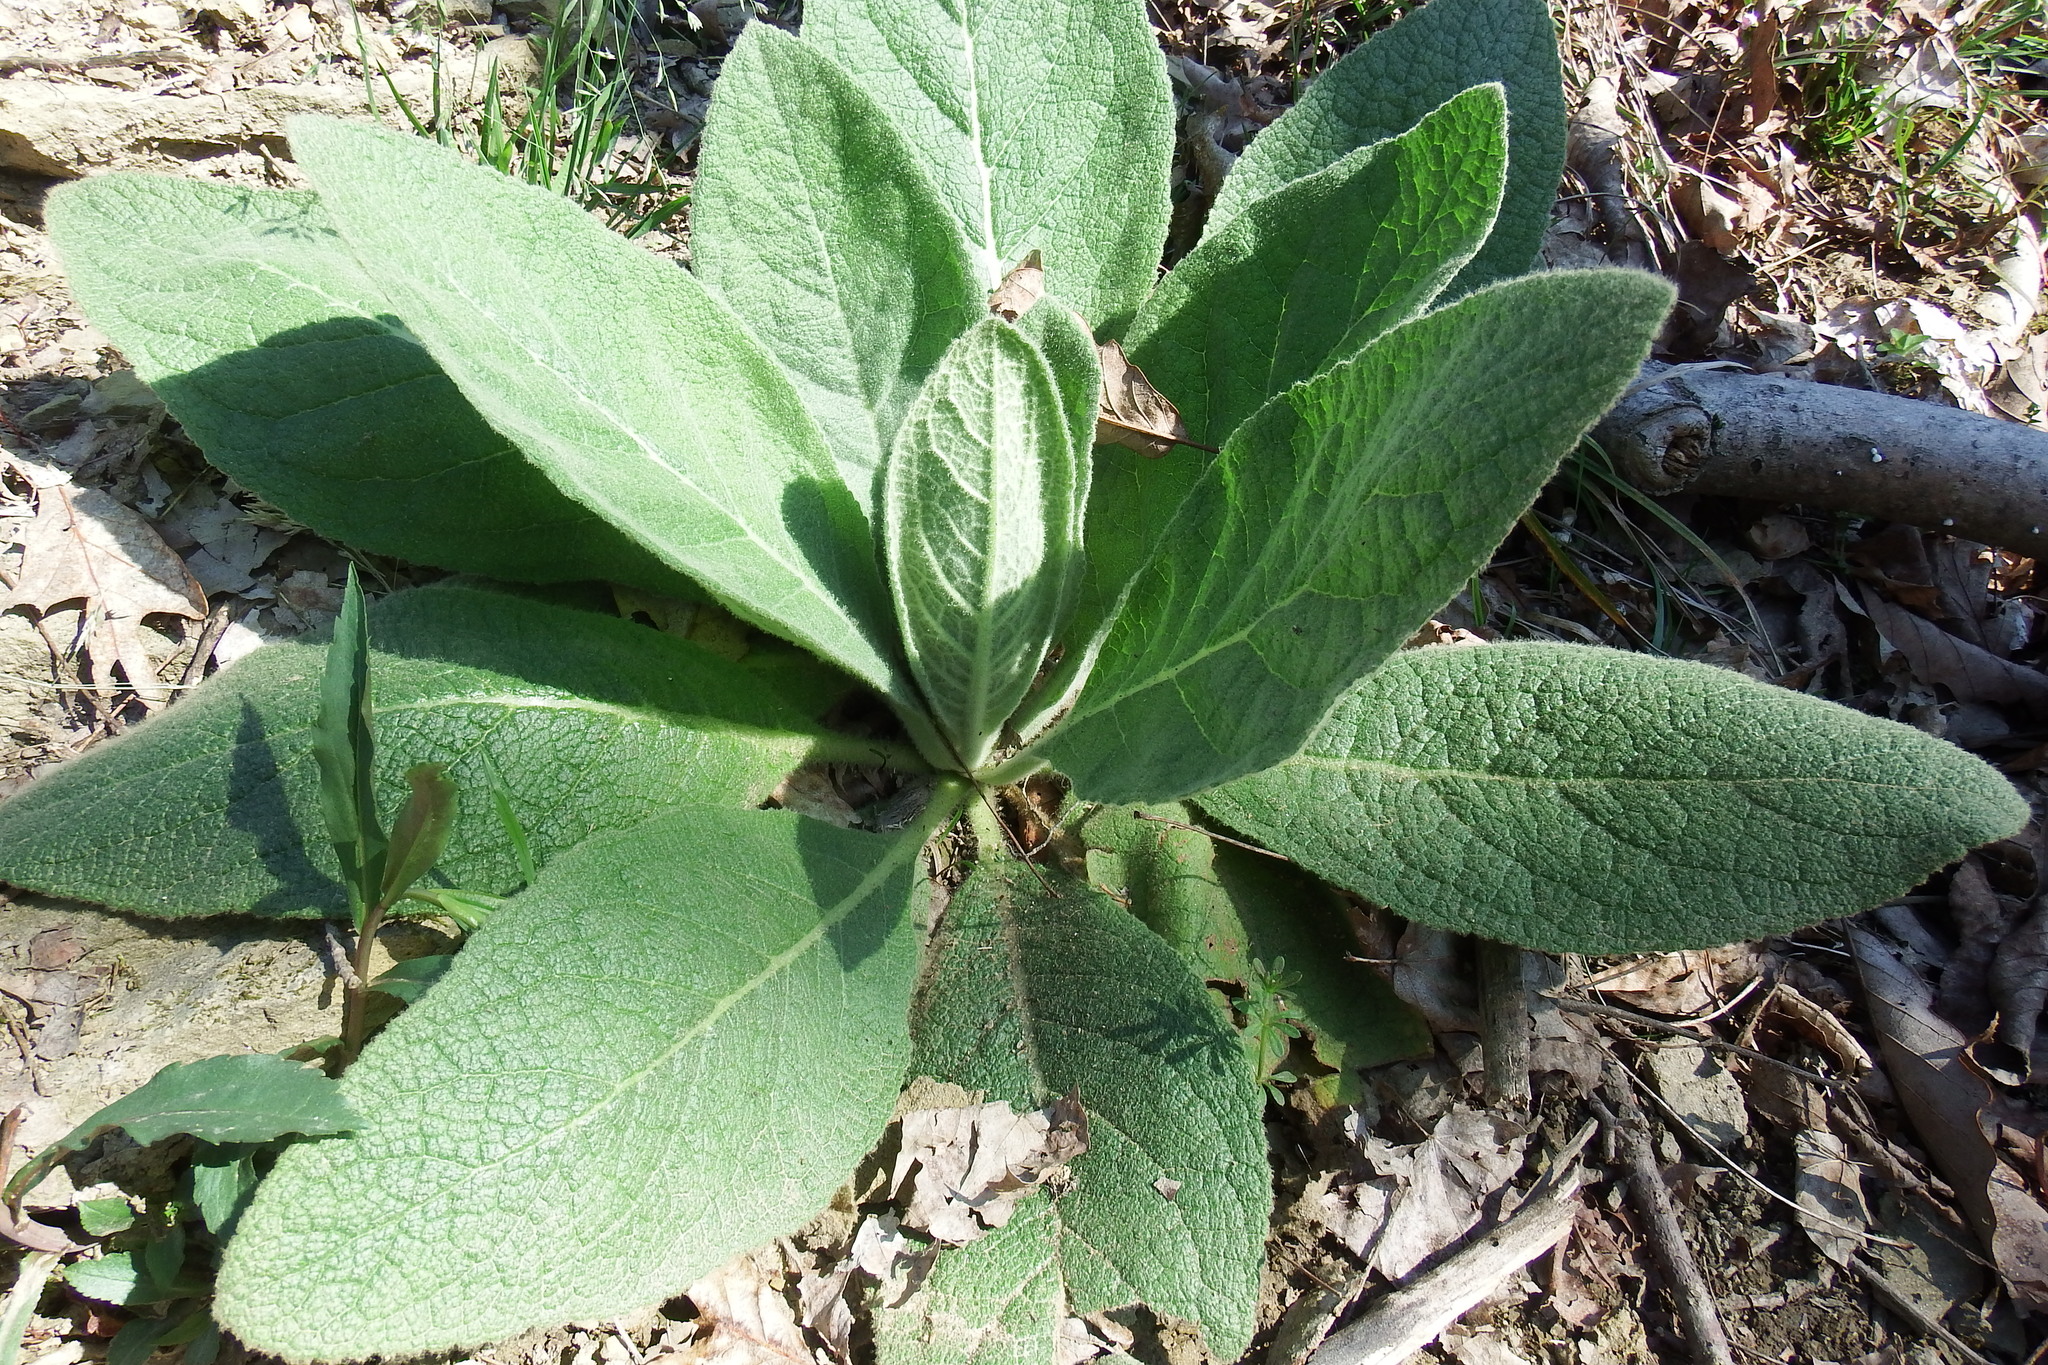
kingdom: Plantae
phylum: Tracheophyta
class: Magnoliopsida
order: Lamiales
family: Scrophulariaceae
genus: Verbascum
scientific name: Verbascum thapsus
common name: Common mullein
